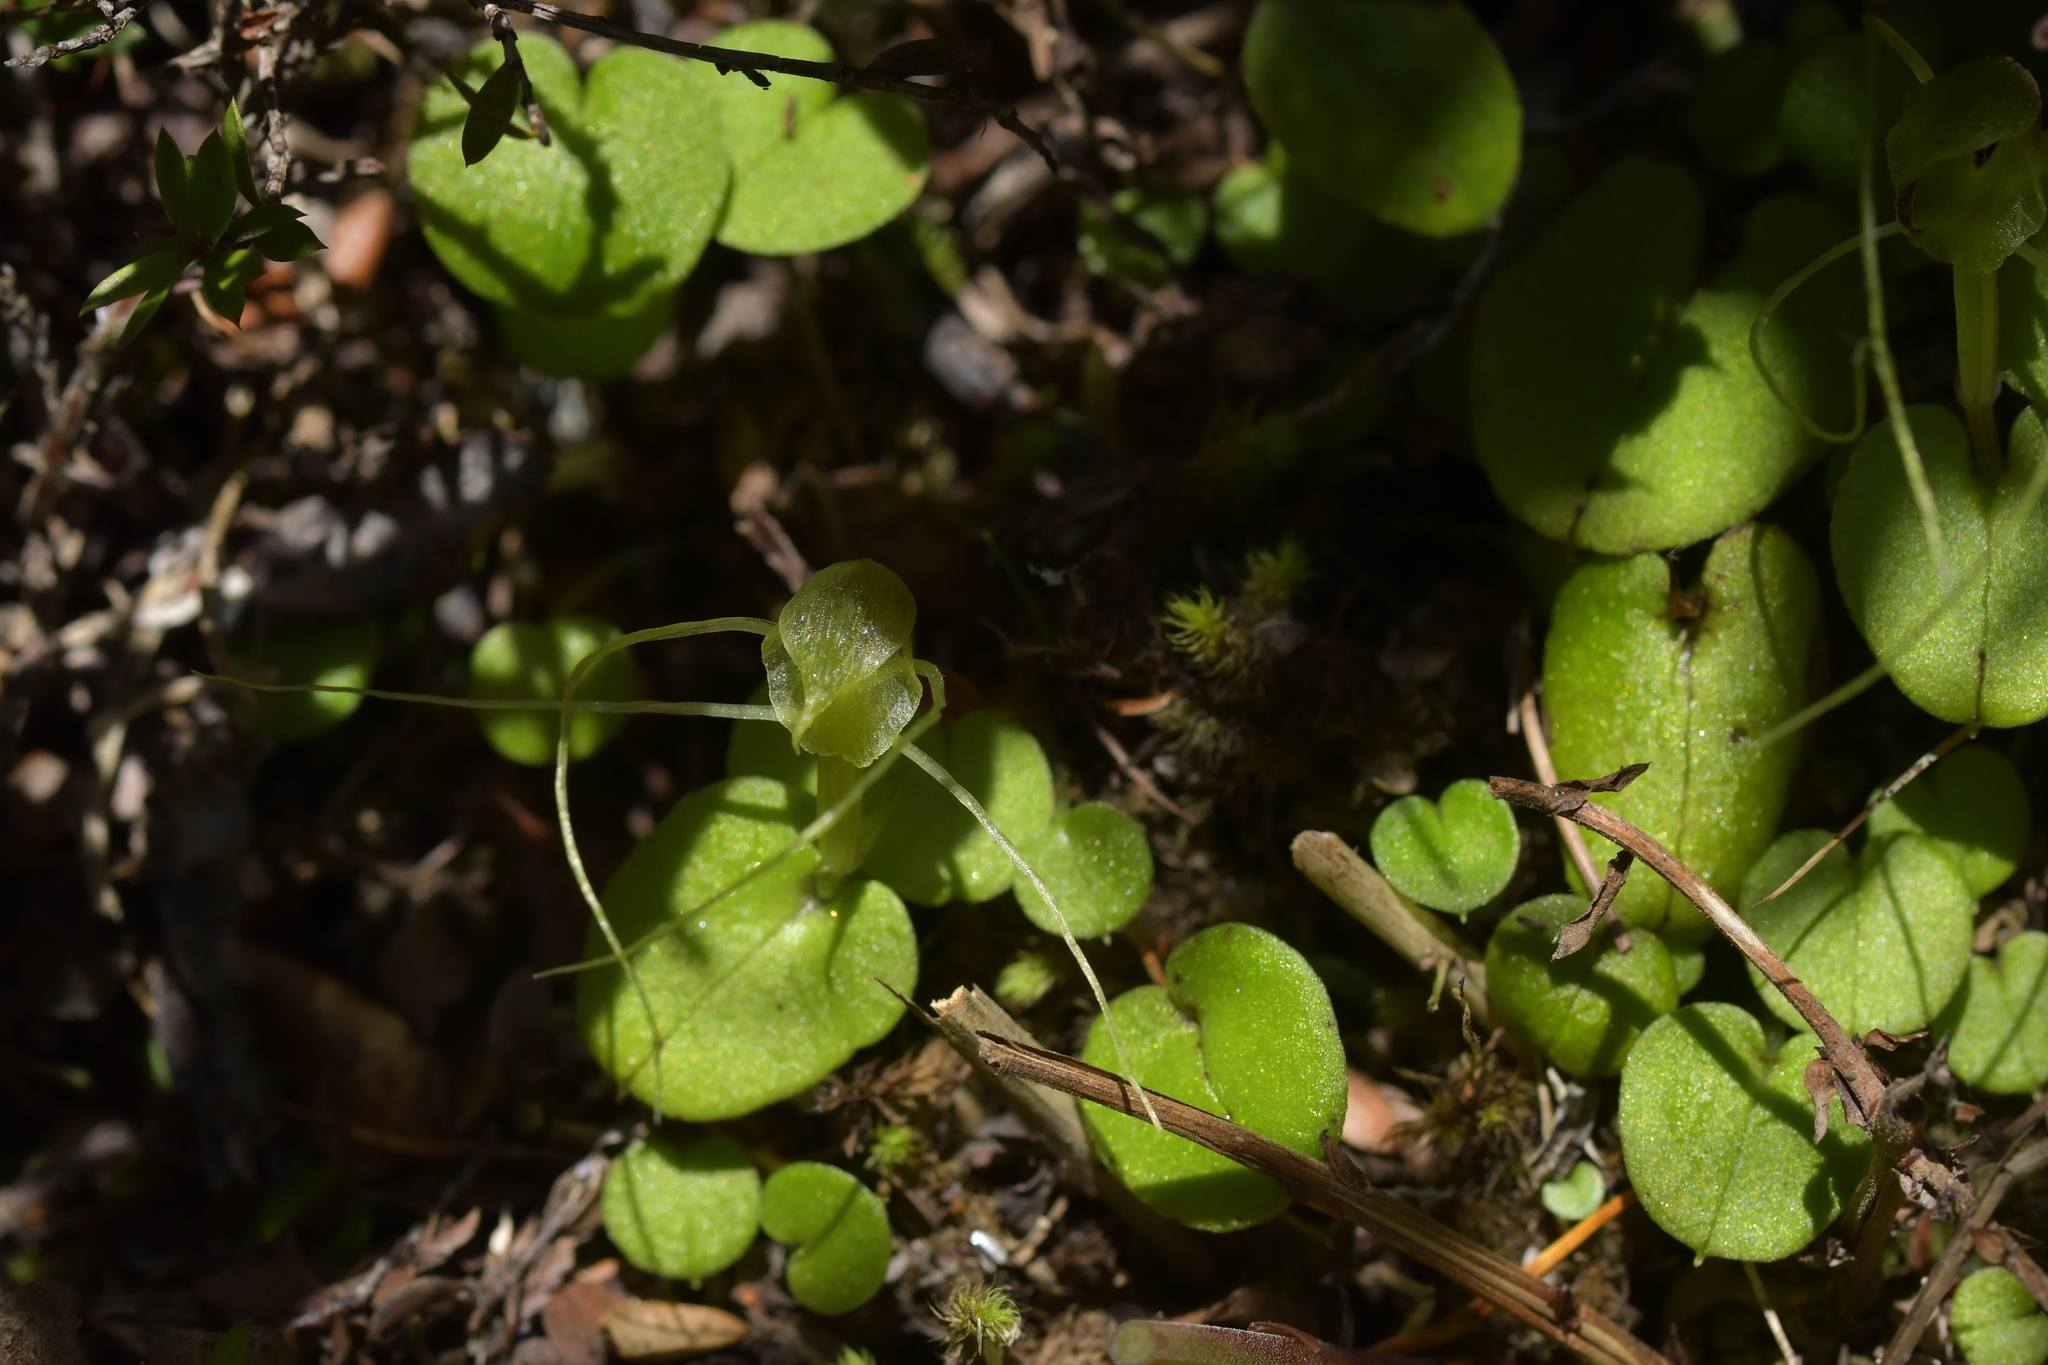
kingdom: Plantae
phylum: Tracheophyta
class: Liliopsida
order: Asparagales
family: Orchidaceae
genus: Corybas
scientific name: Corybas papa
